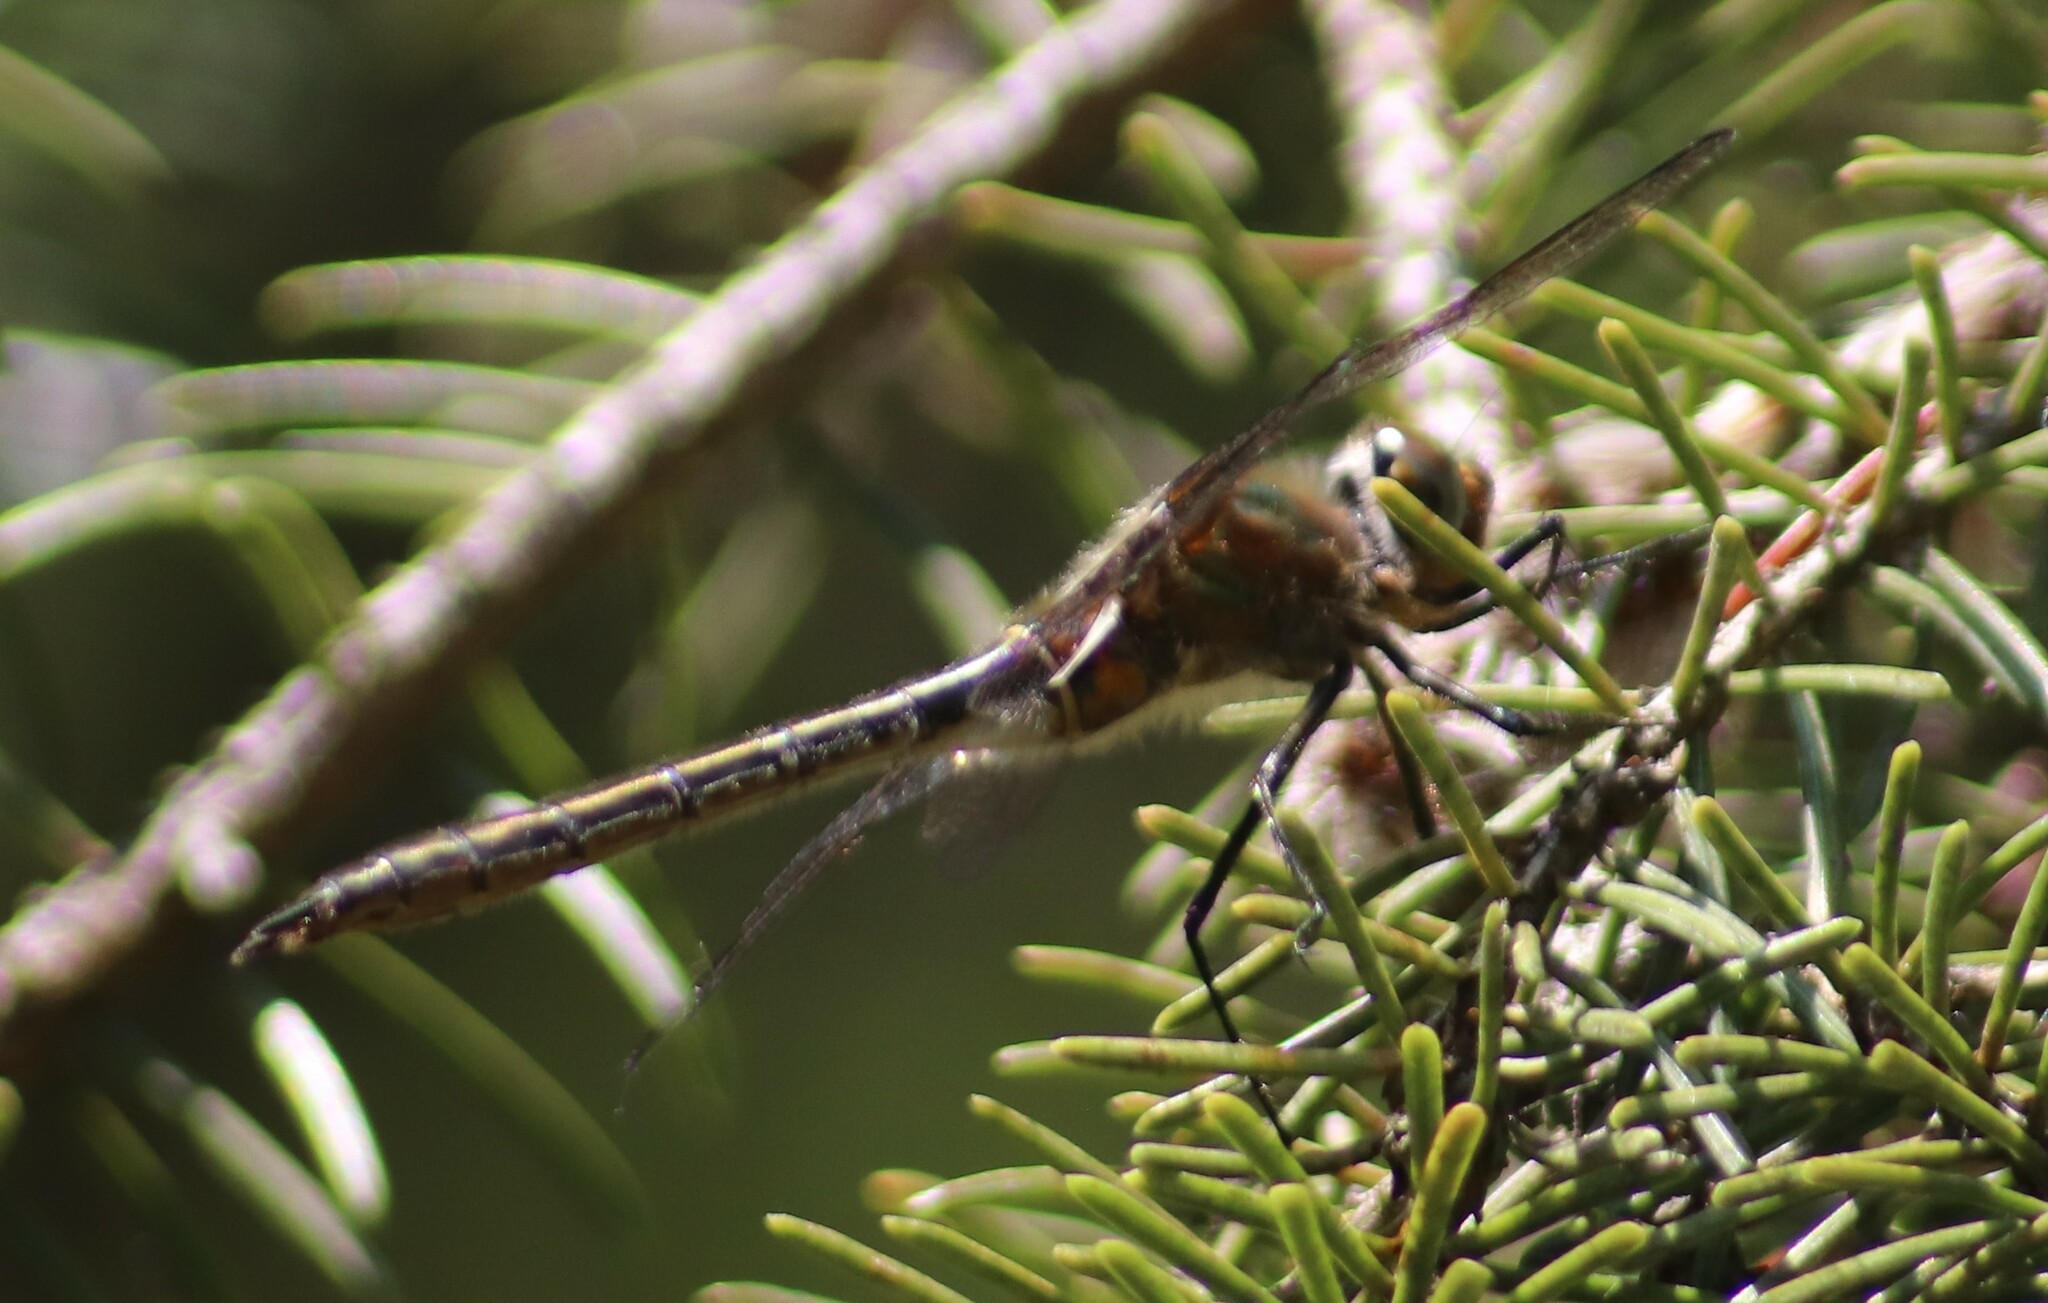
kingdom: Animalia
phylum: Arthropoda
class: Insecta
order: Odonata
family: Corduliidae
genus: Cordulia
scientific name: Cordulia shurtleffii
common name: American emerald
